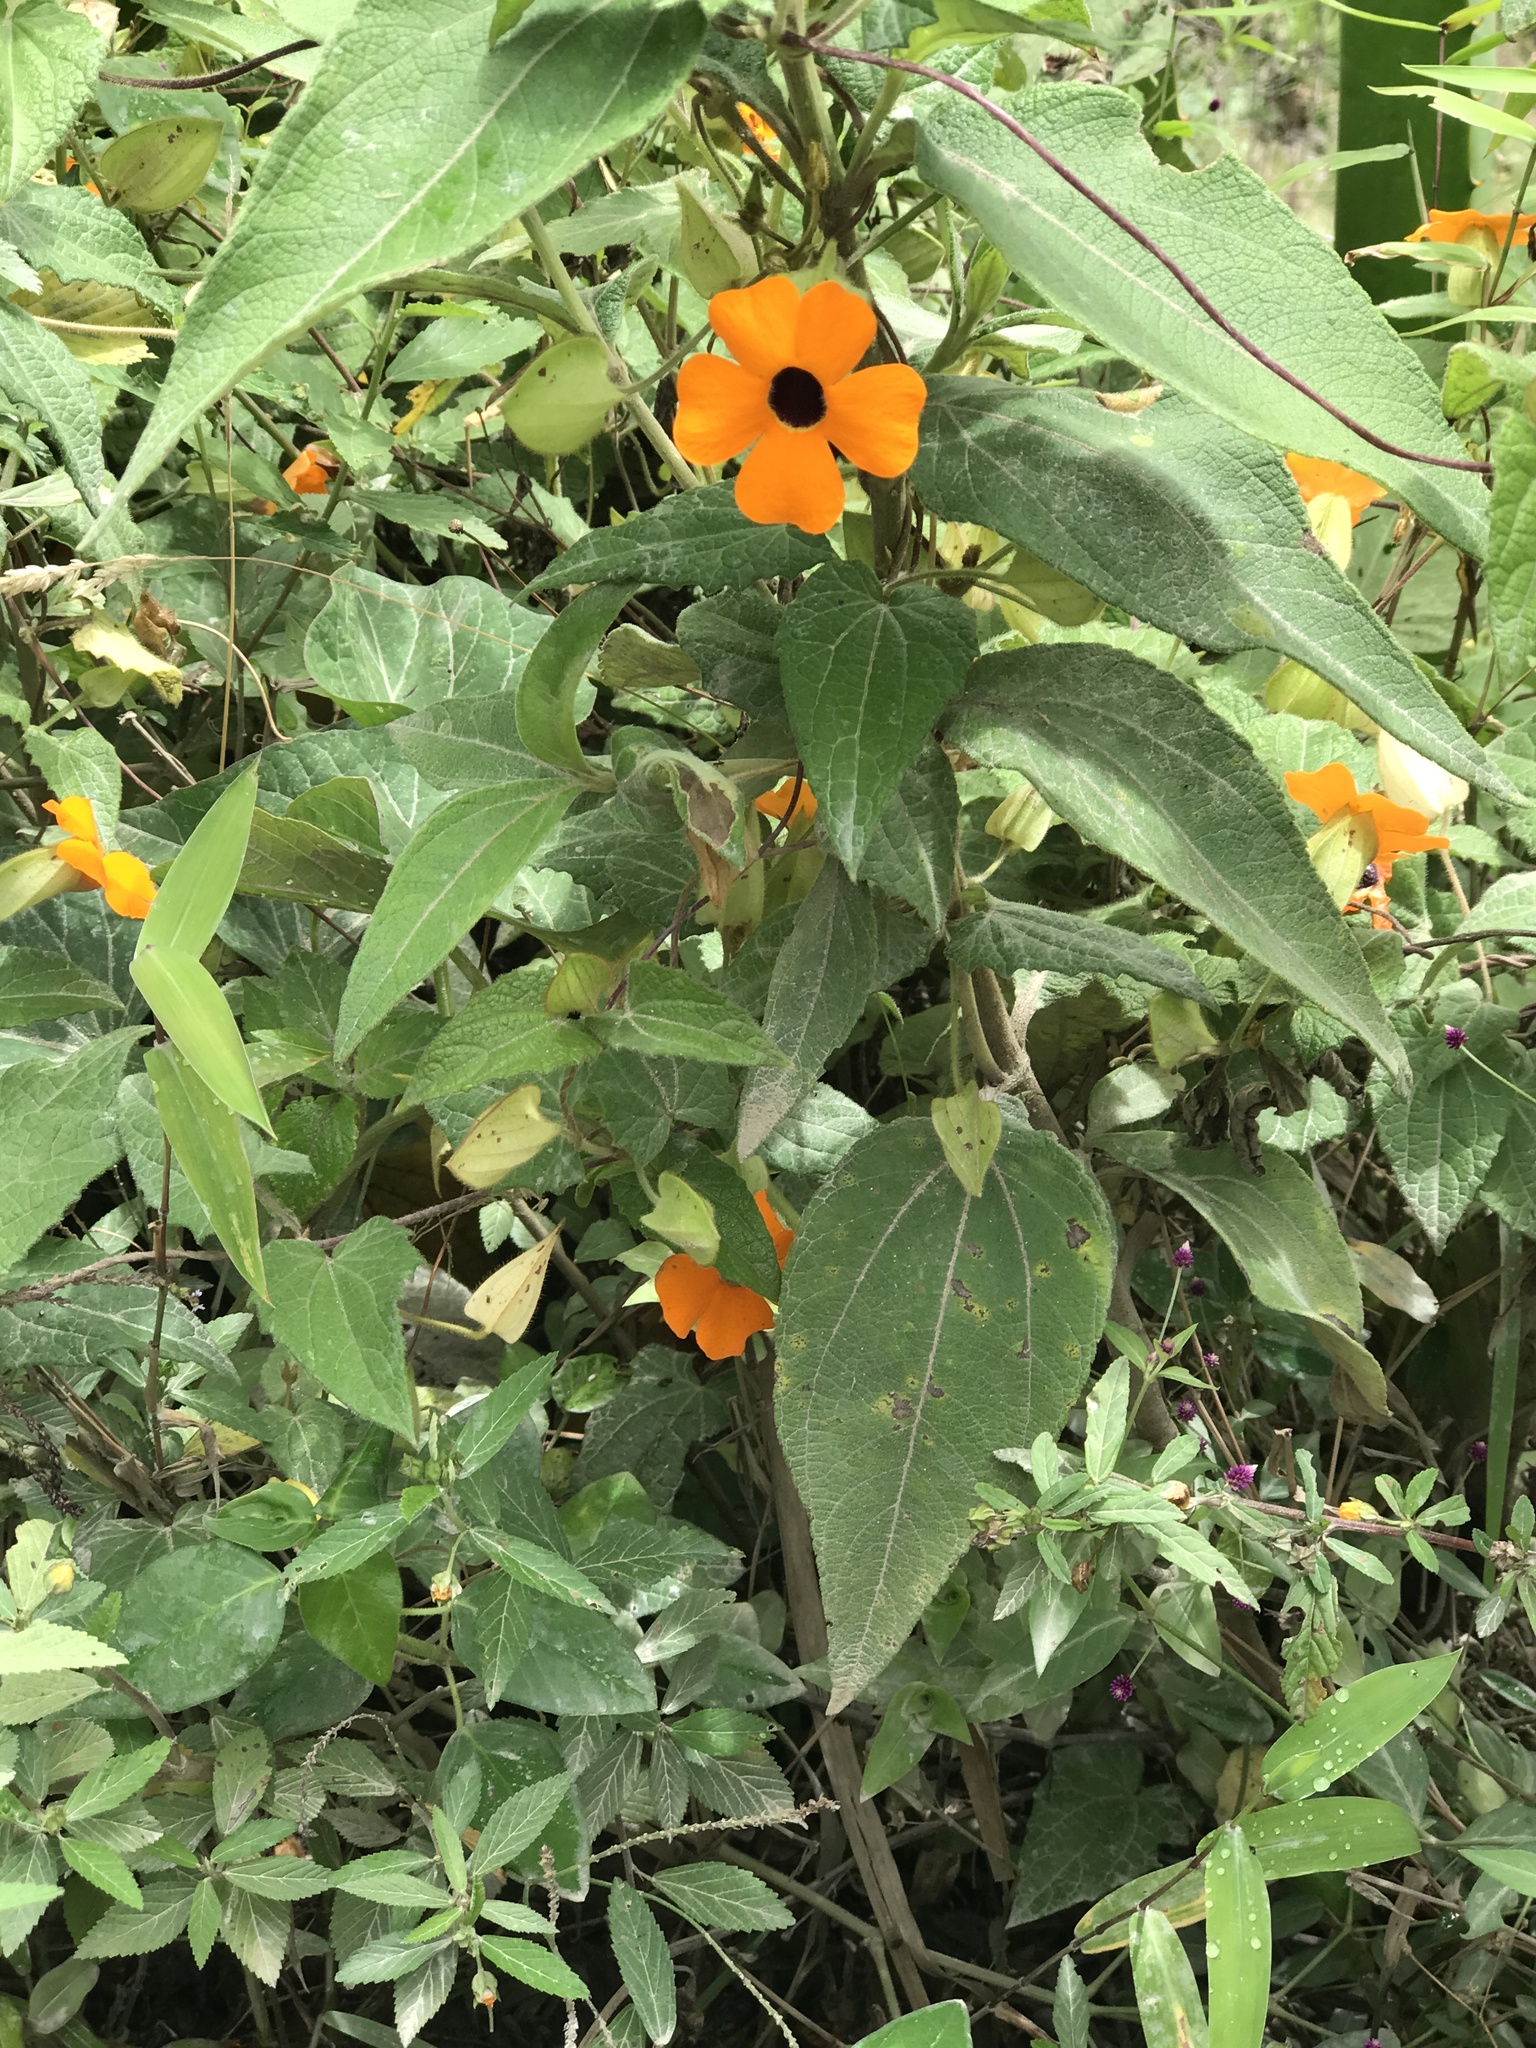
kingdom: Plantae
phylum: Tracheophyta
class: Magnoliopsida
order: Lamiales
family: Acanthaceae
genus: Thunbergia
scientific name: Thunbergia alata
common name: Blackeyed susan vine
